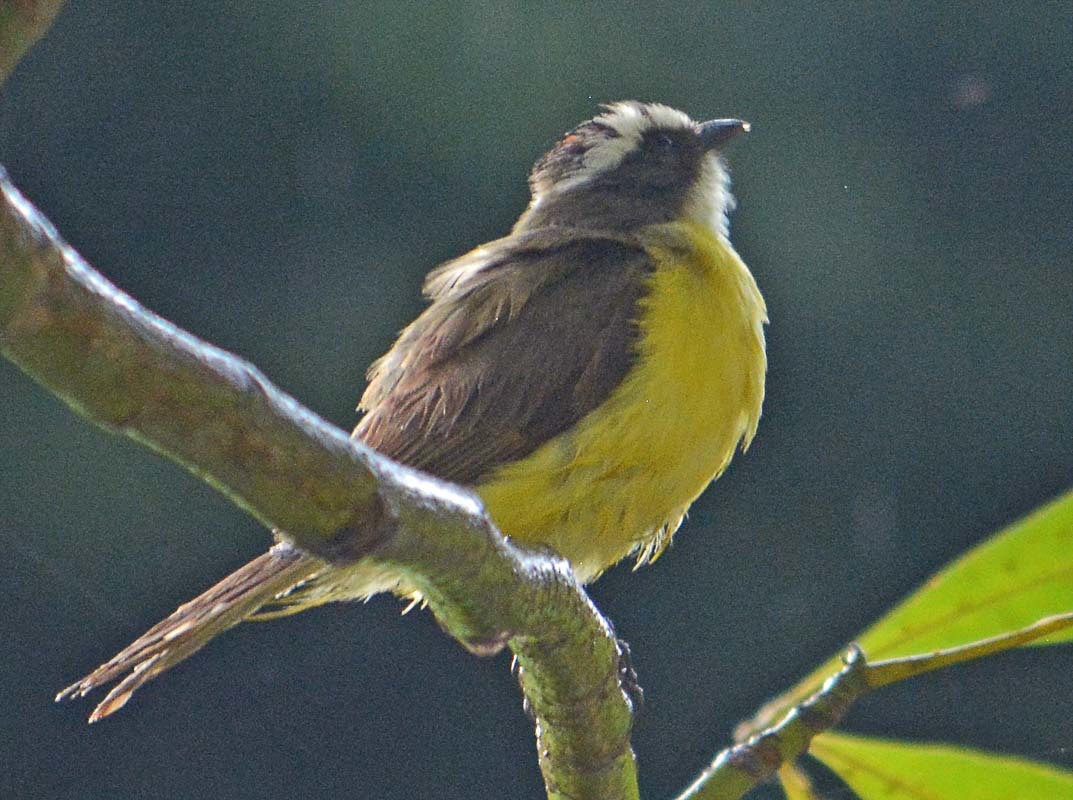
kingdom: Animalia
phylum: Chordata
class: Aves
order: Passeriformes
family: Tyrannidae
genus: Myiozetetes
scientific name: Myiozetetes similis
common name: Social flycatcher
